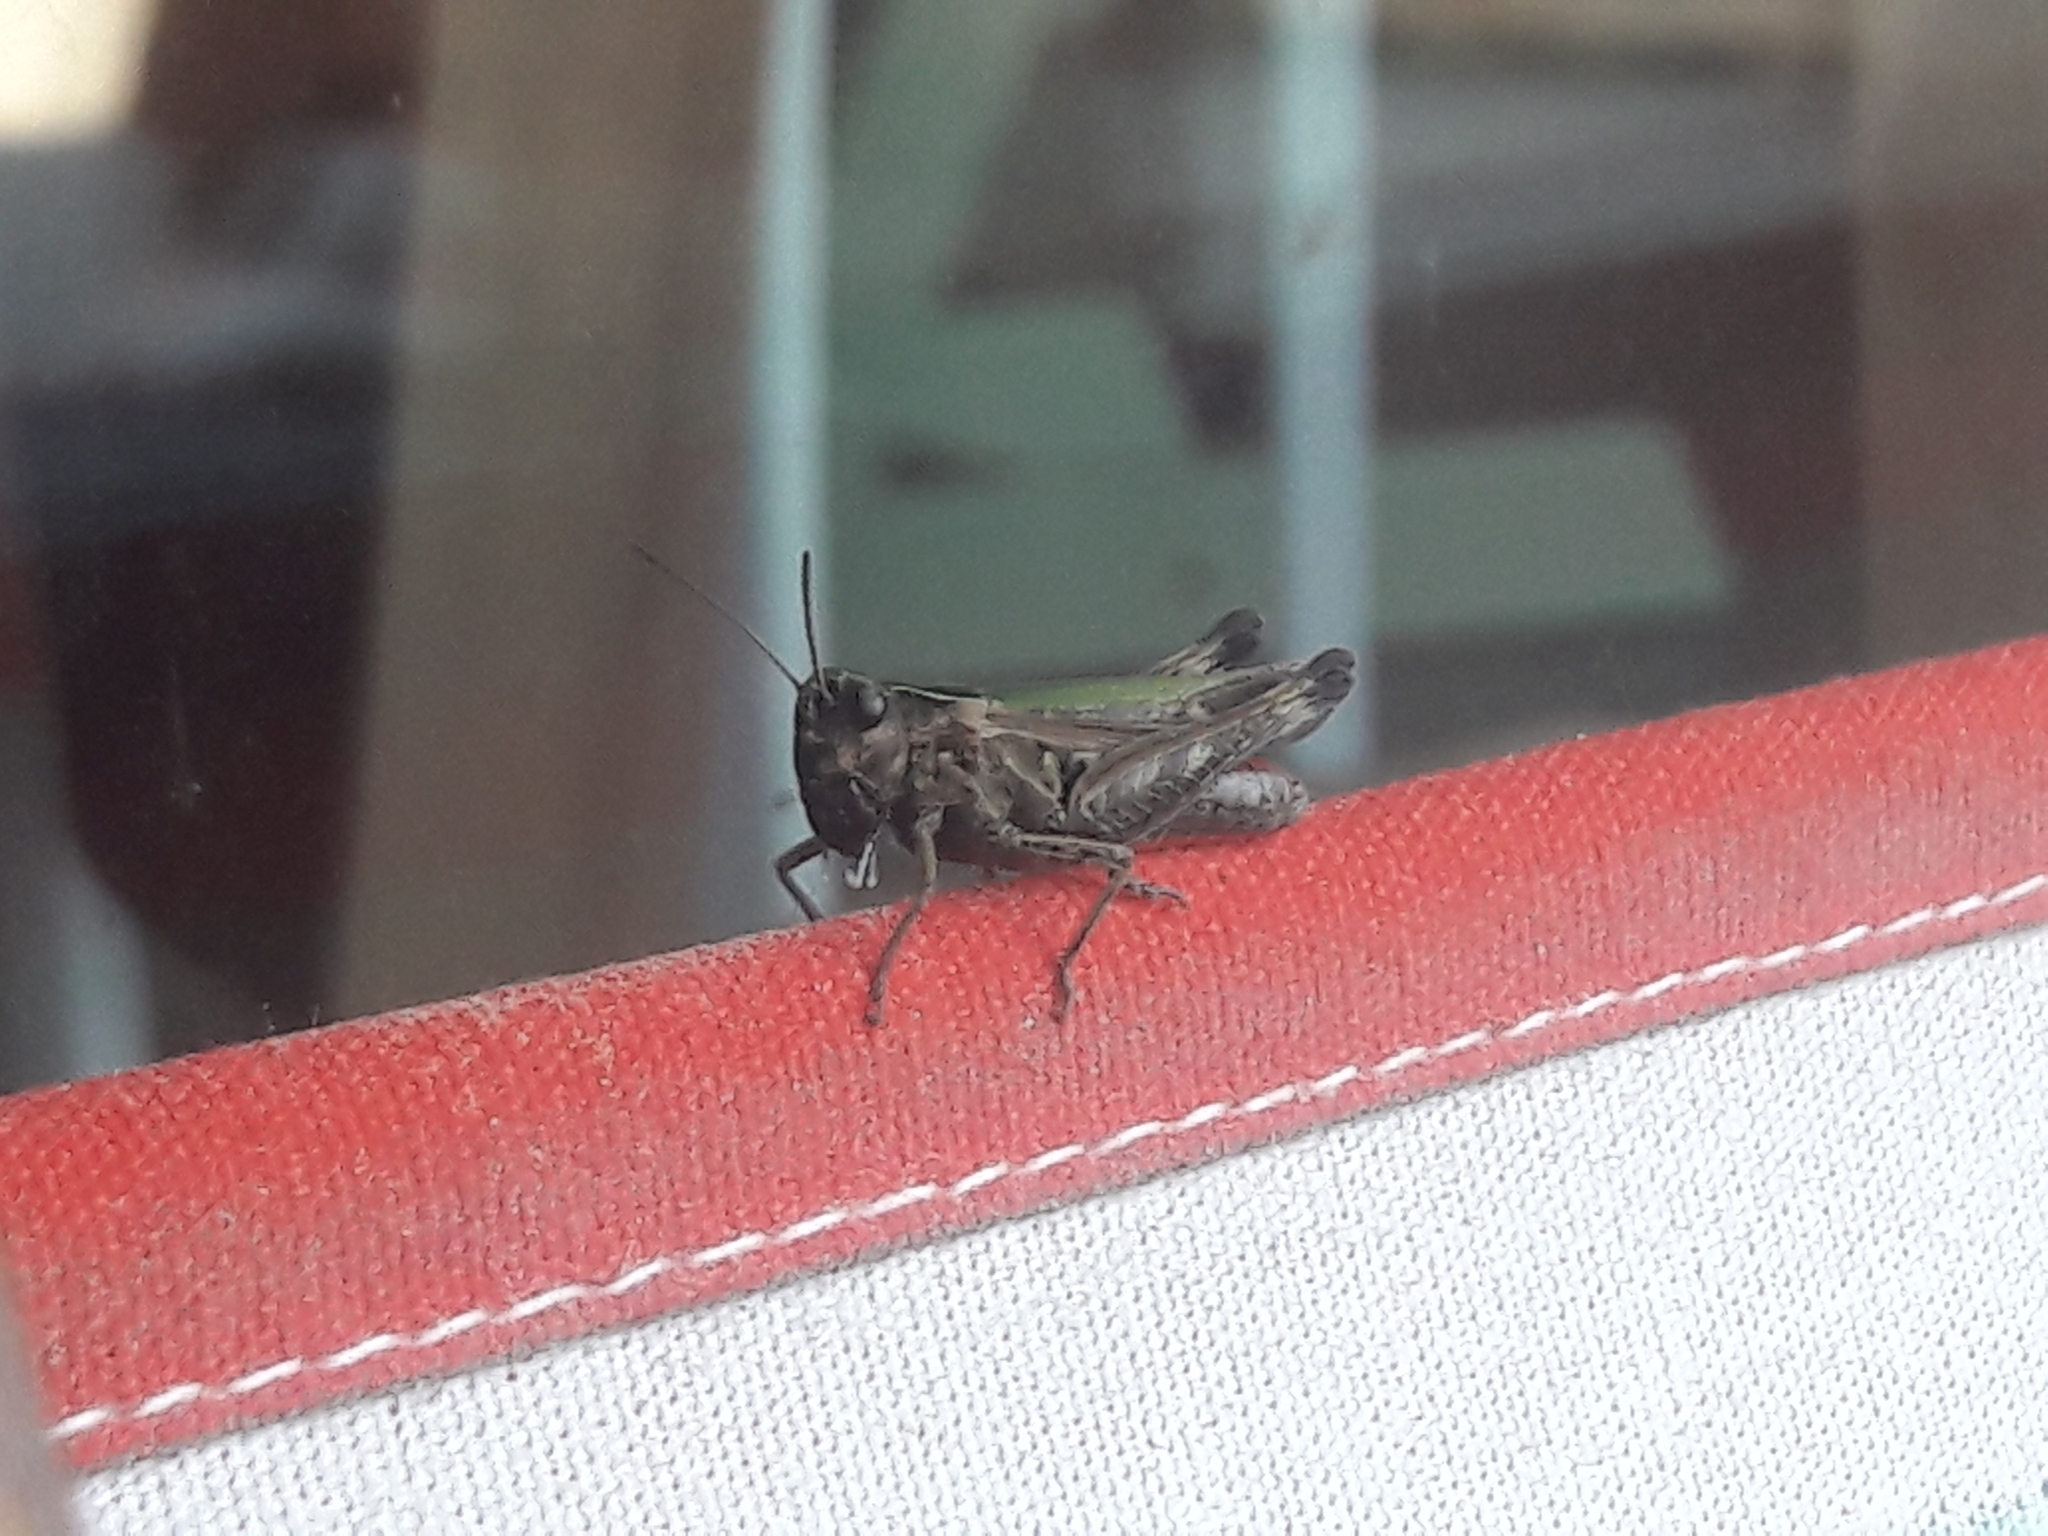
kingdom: Animalia
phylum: Arthropoda
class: Insecta
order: Orthoptera
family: Acrididae
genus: Omocestus
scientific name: Omocestus rufipes
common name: Woodland grasshopper
